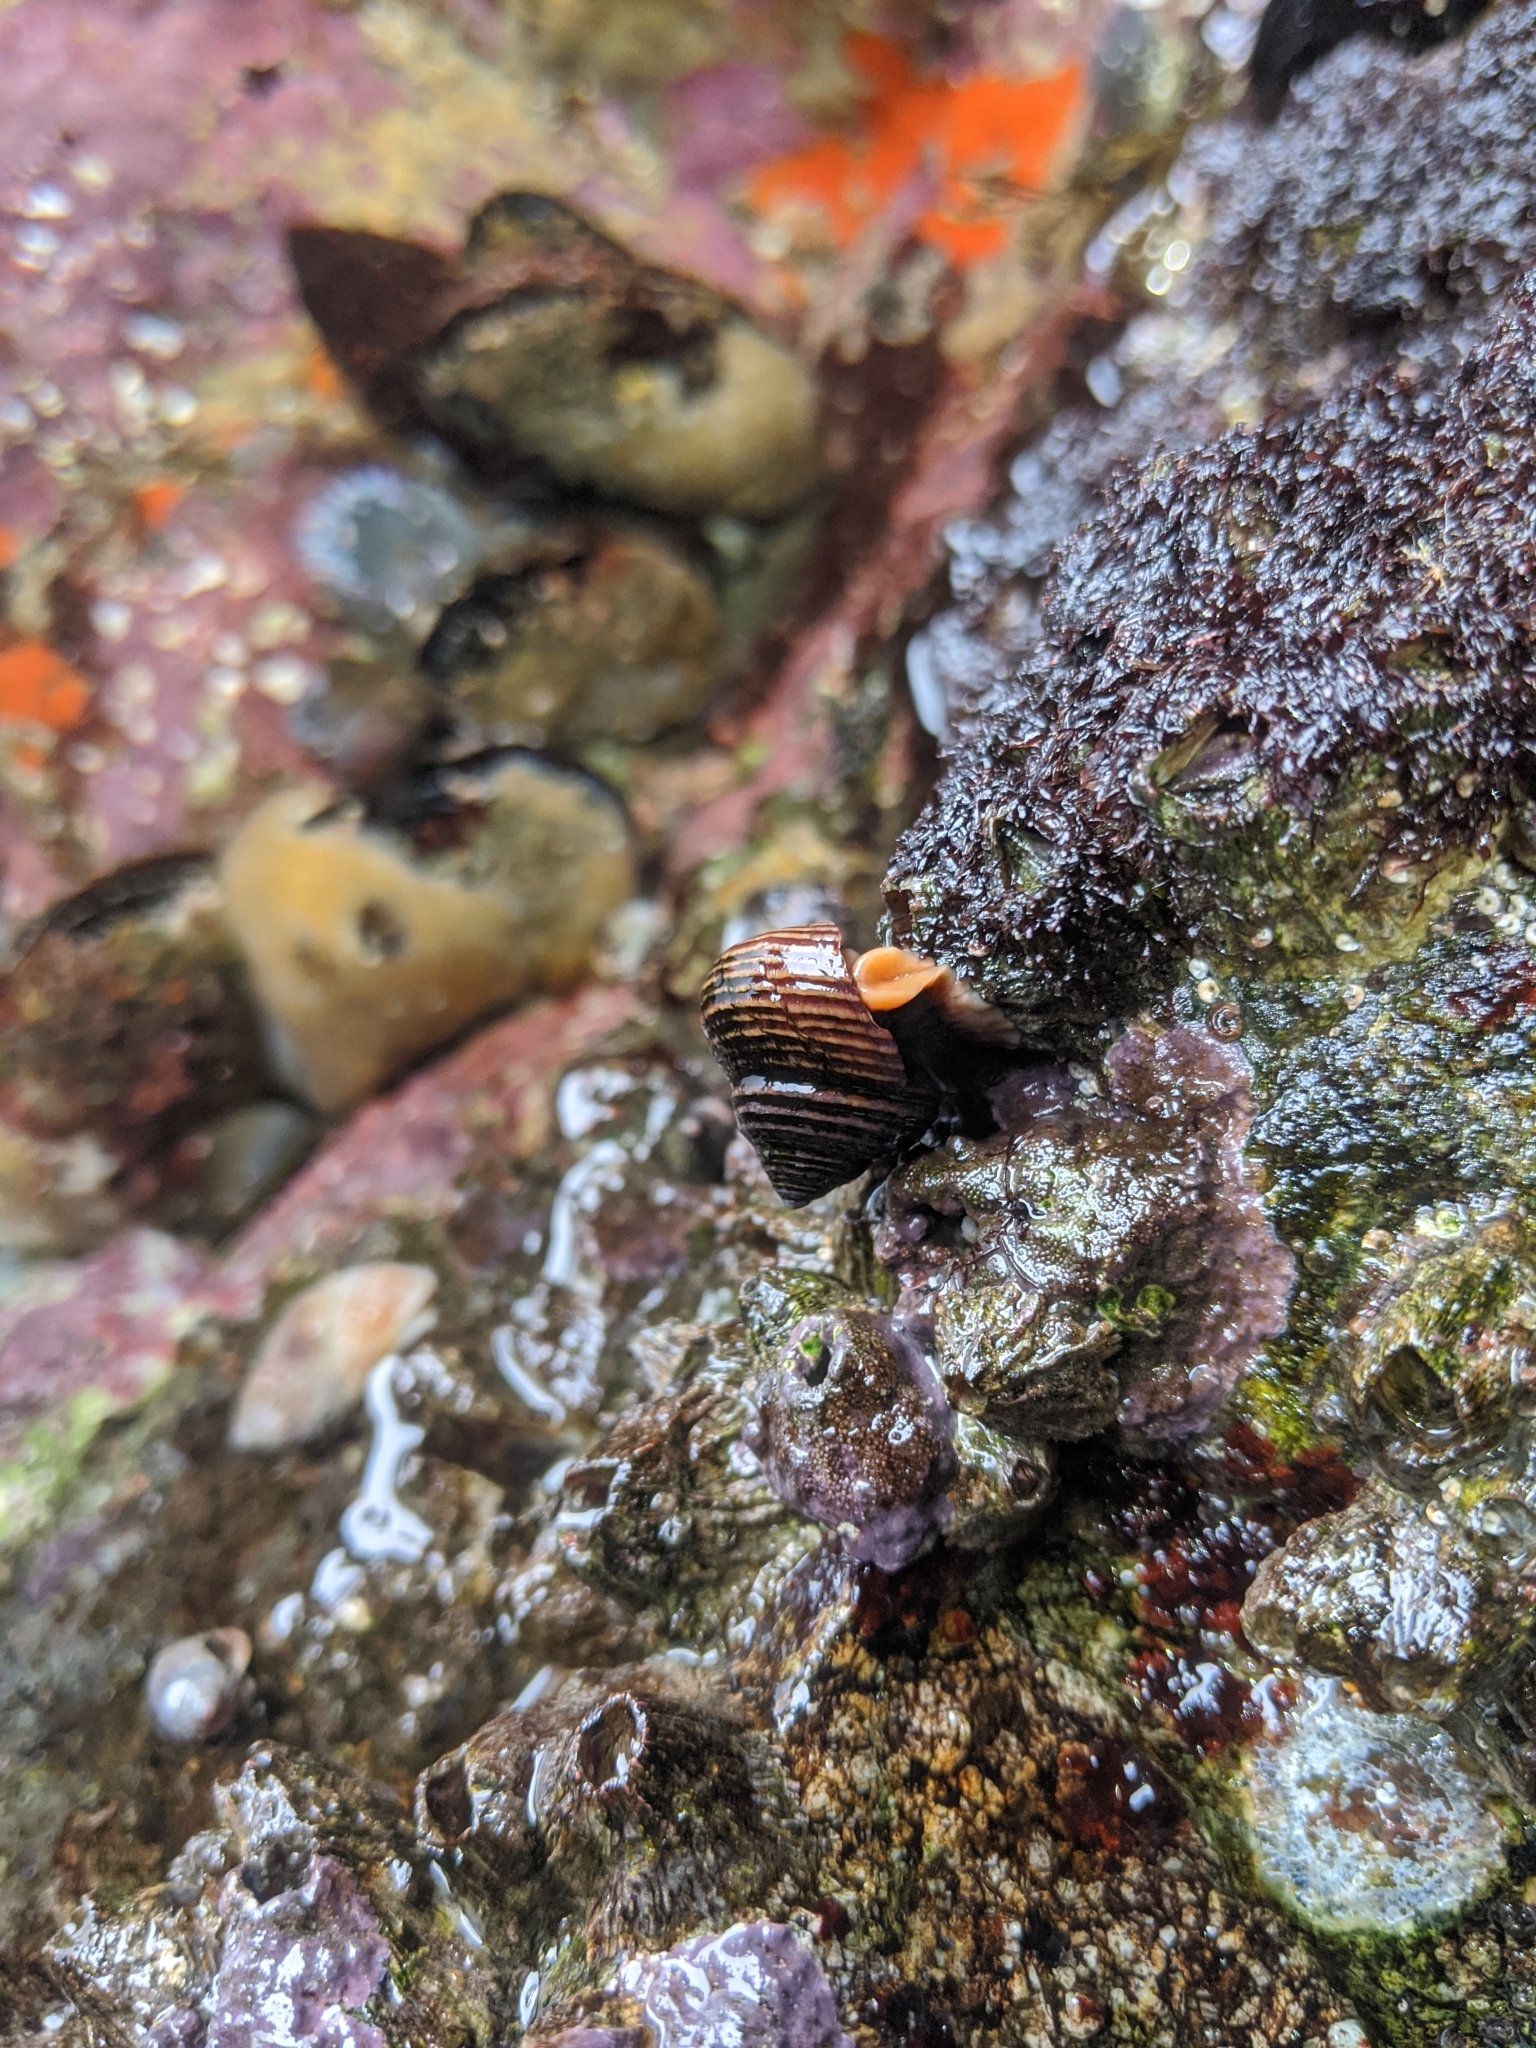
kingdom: Animalia
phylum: Mollusca
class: Gastropoda
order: Trochida
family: Calliostomatidae
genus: Calliostoma
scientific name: Calliostoma ligatum
